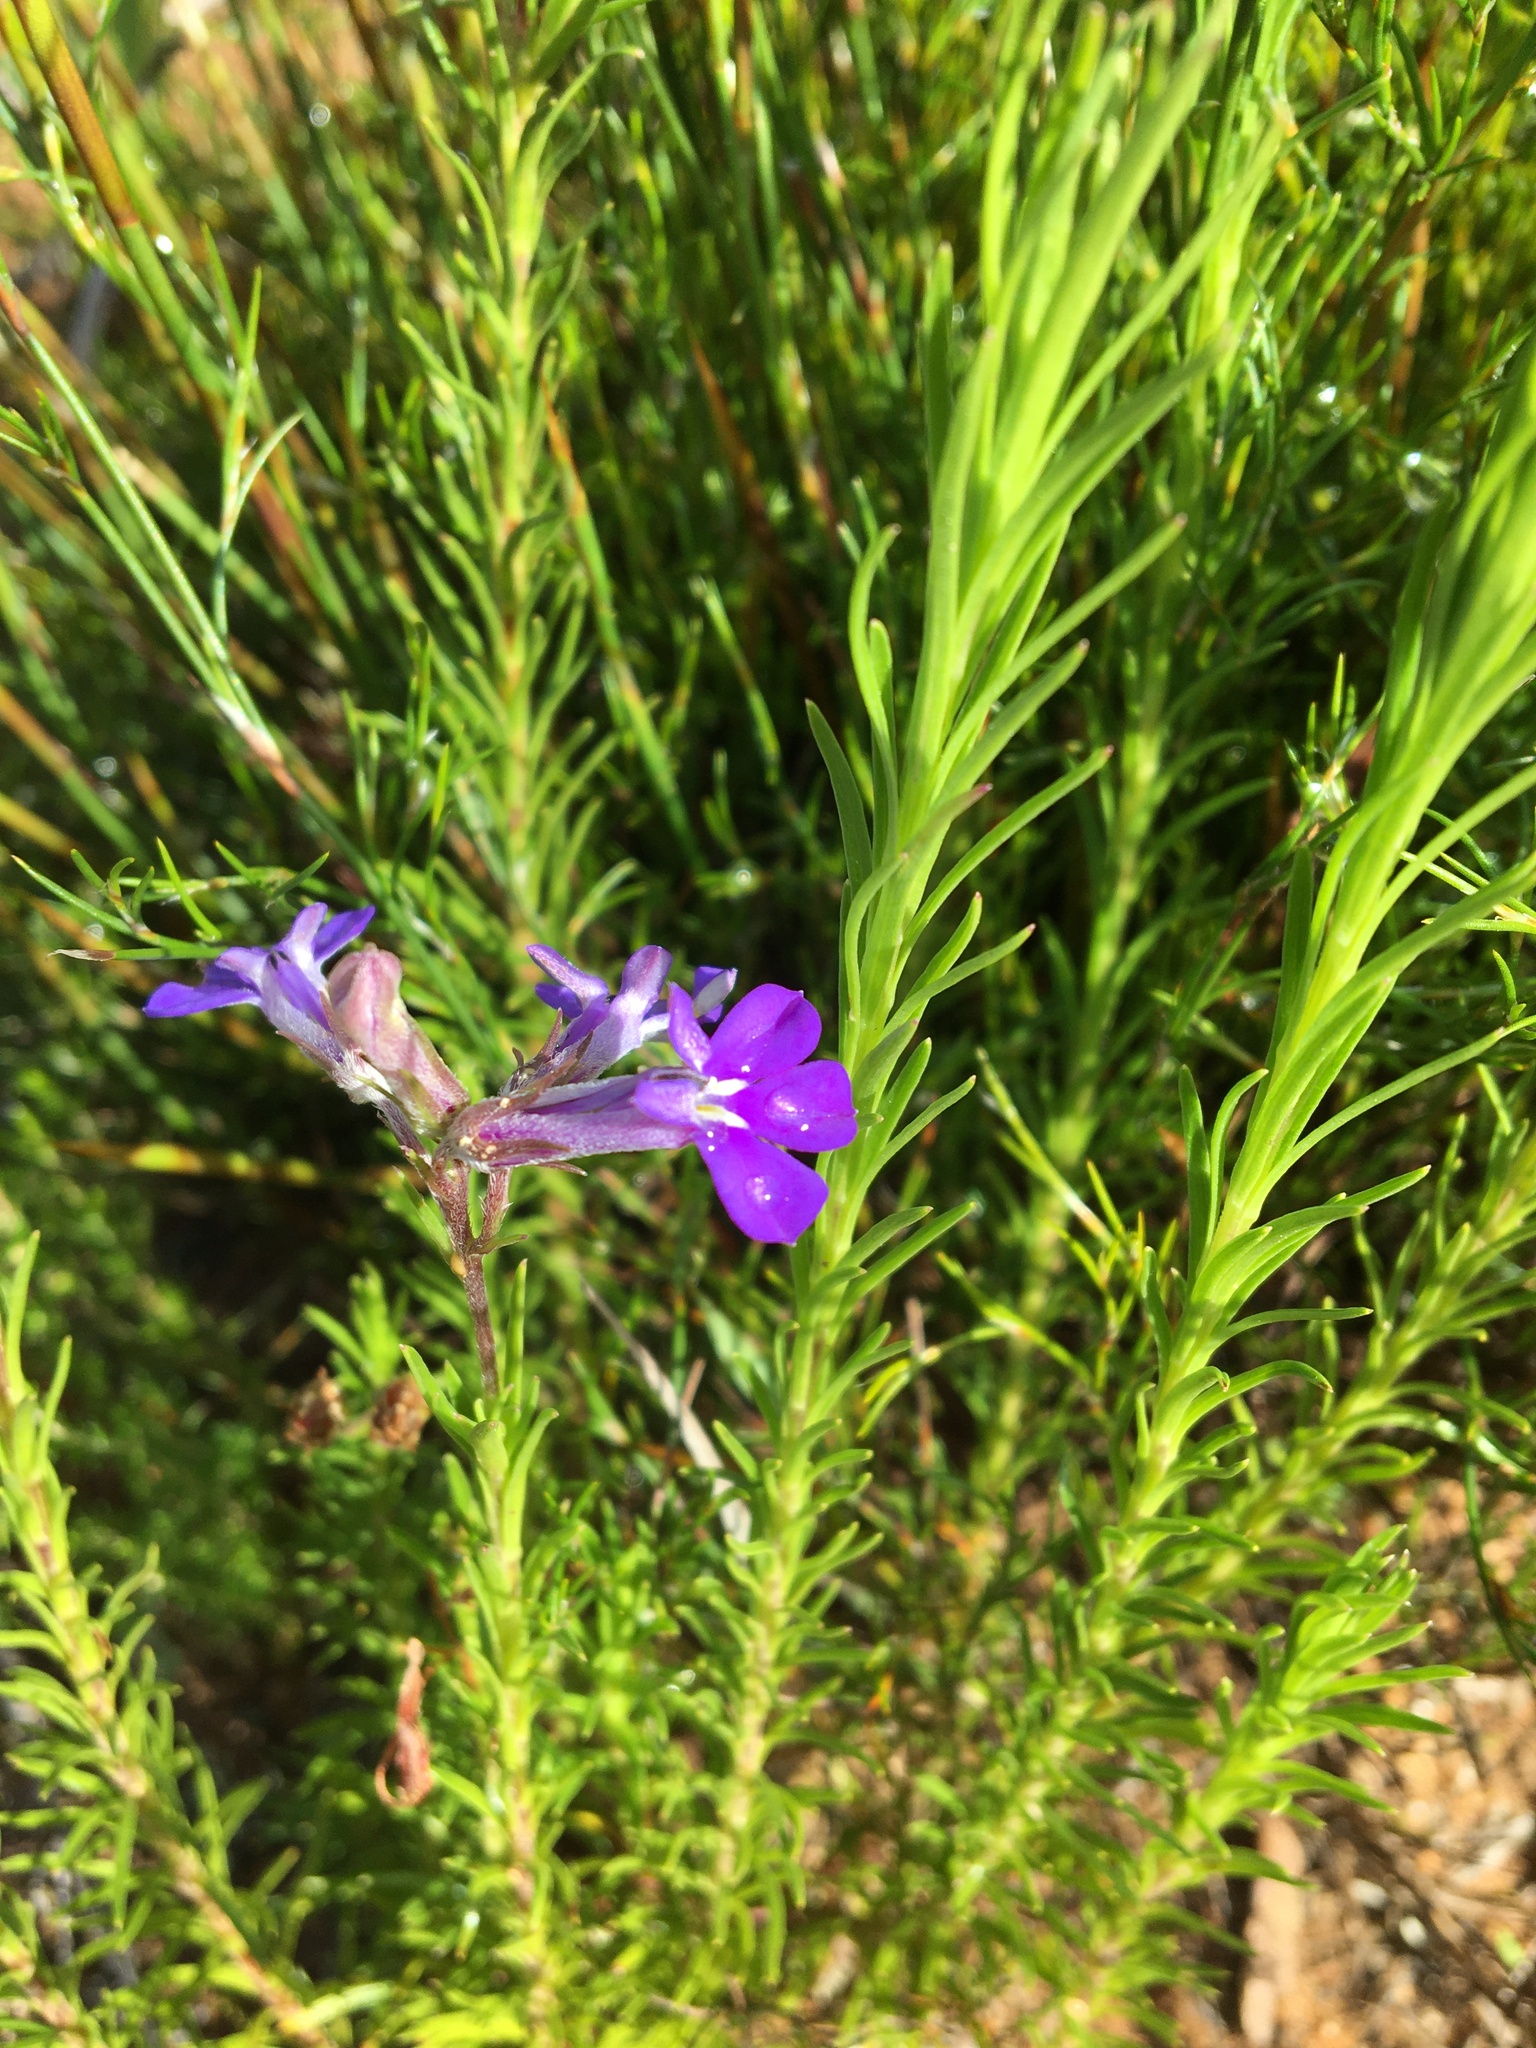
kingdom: Plantae
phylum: Tracheophyta
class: Magnoliopsida
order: Asterales
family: Campanulaceae
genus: Lobelia
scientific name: Lobelia pinifolia
